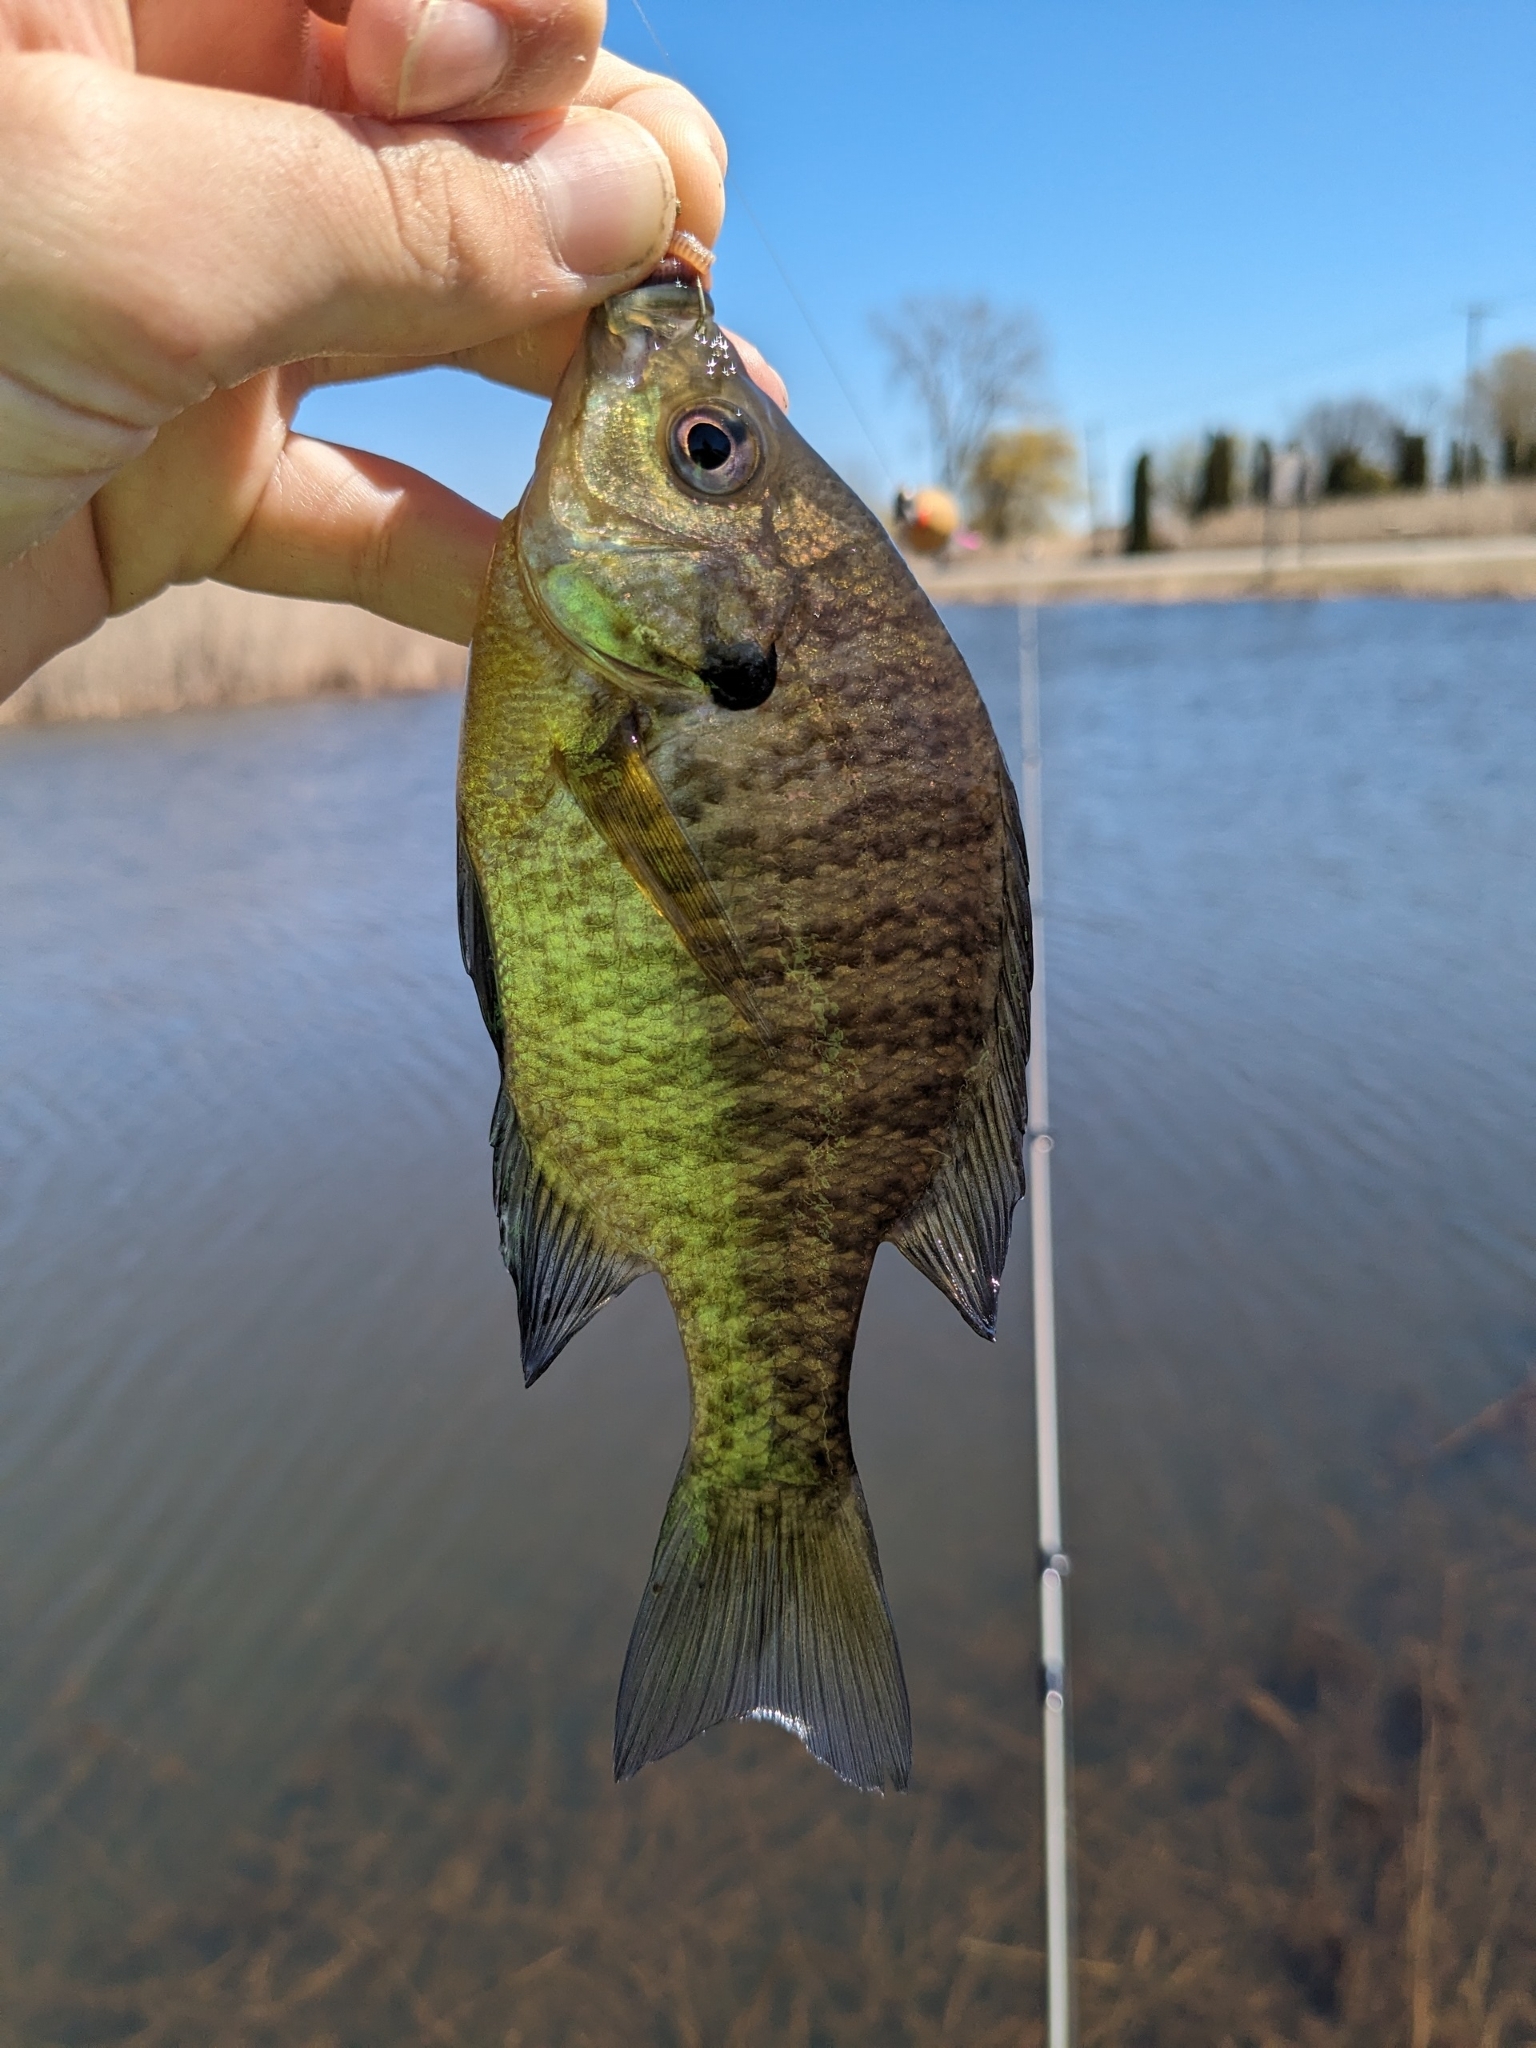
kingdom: Animalia
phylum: Chordata
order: Perciformes
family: Centrarchidae
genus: Lepomis
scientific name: Lepomis macrochirus
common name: Bluegill
